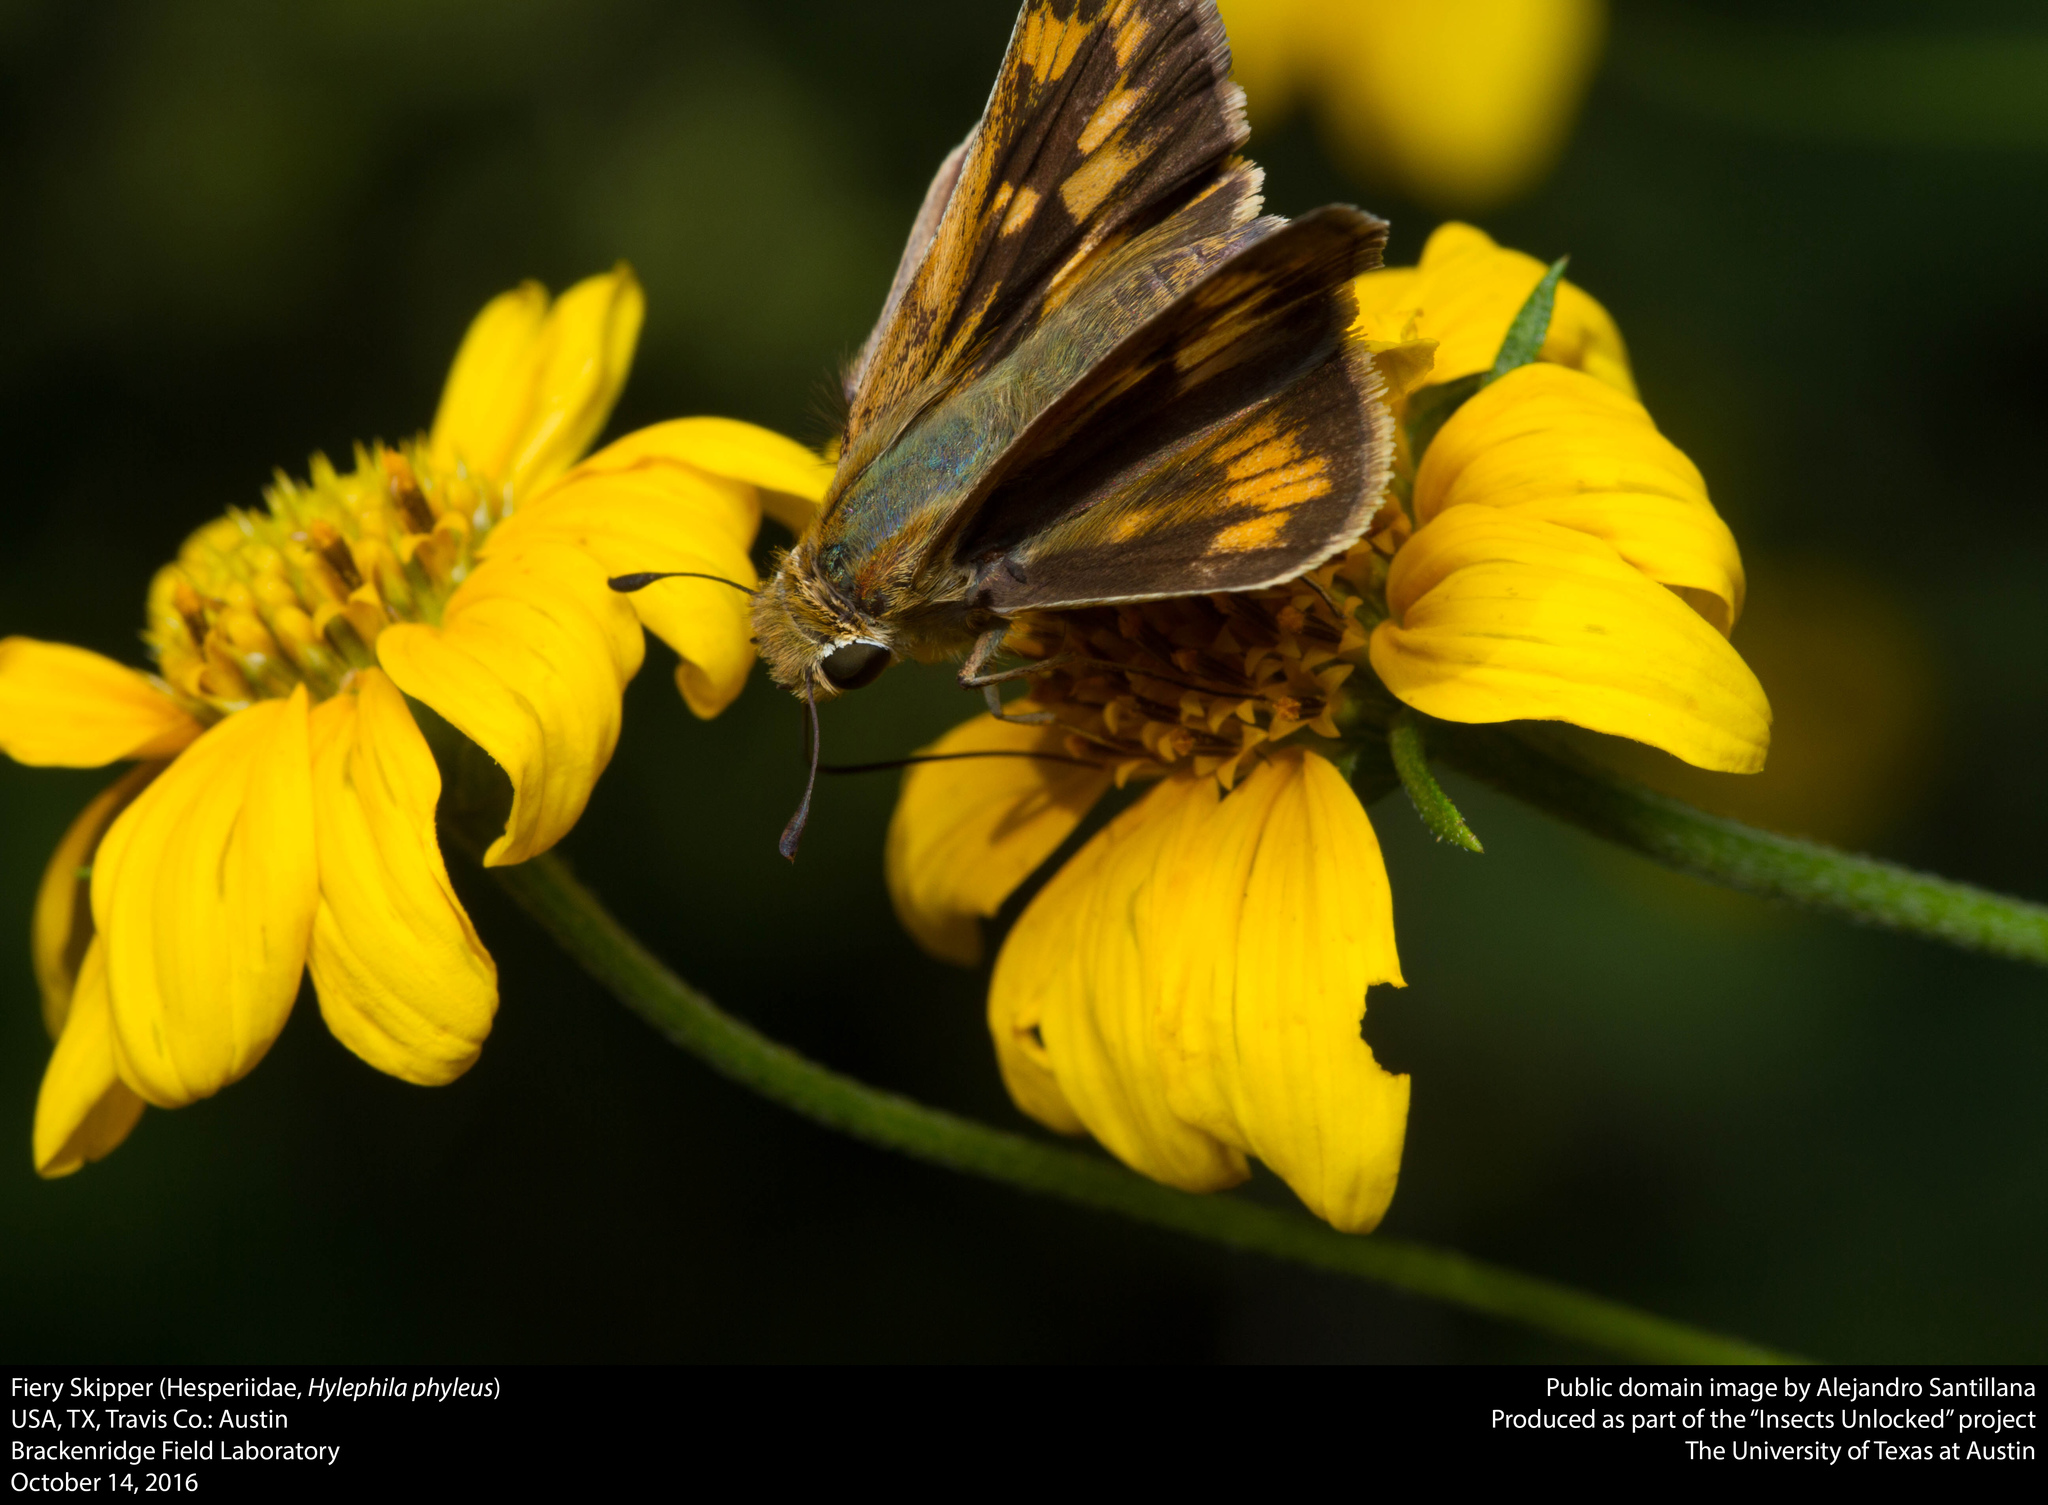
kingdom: Animalia
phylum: Arthropoda
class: Insecta
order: Lepidoptera
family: Hesperiidae
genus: Hylephila
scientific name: Hylephila phyleus
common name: Fiery skipper
